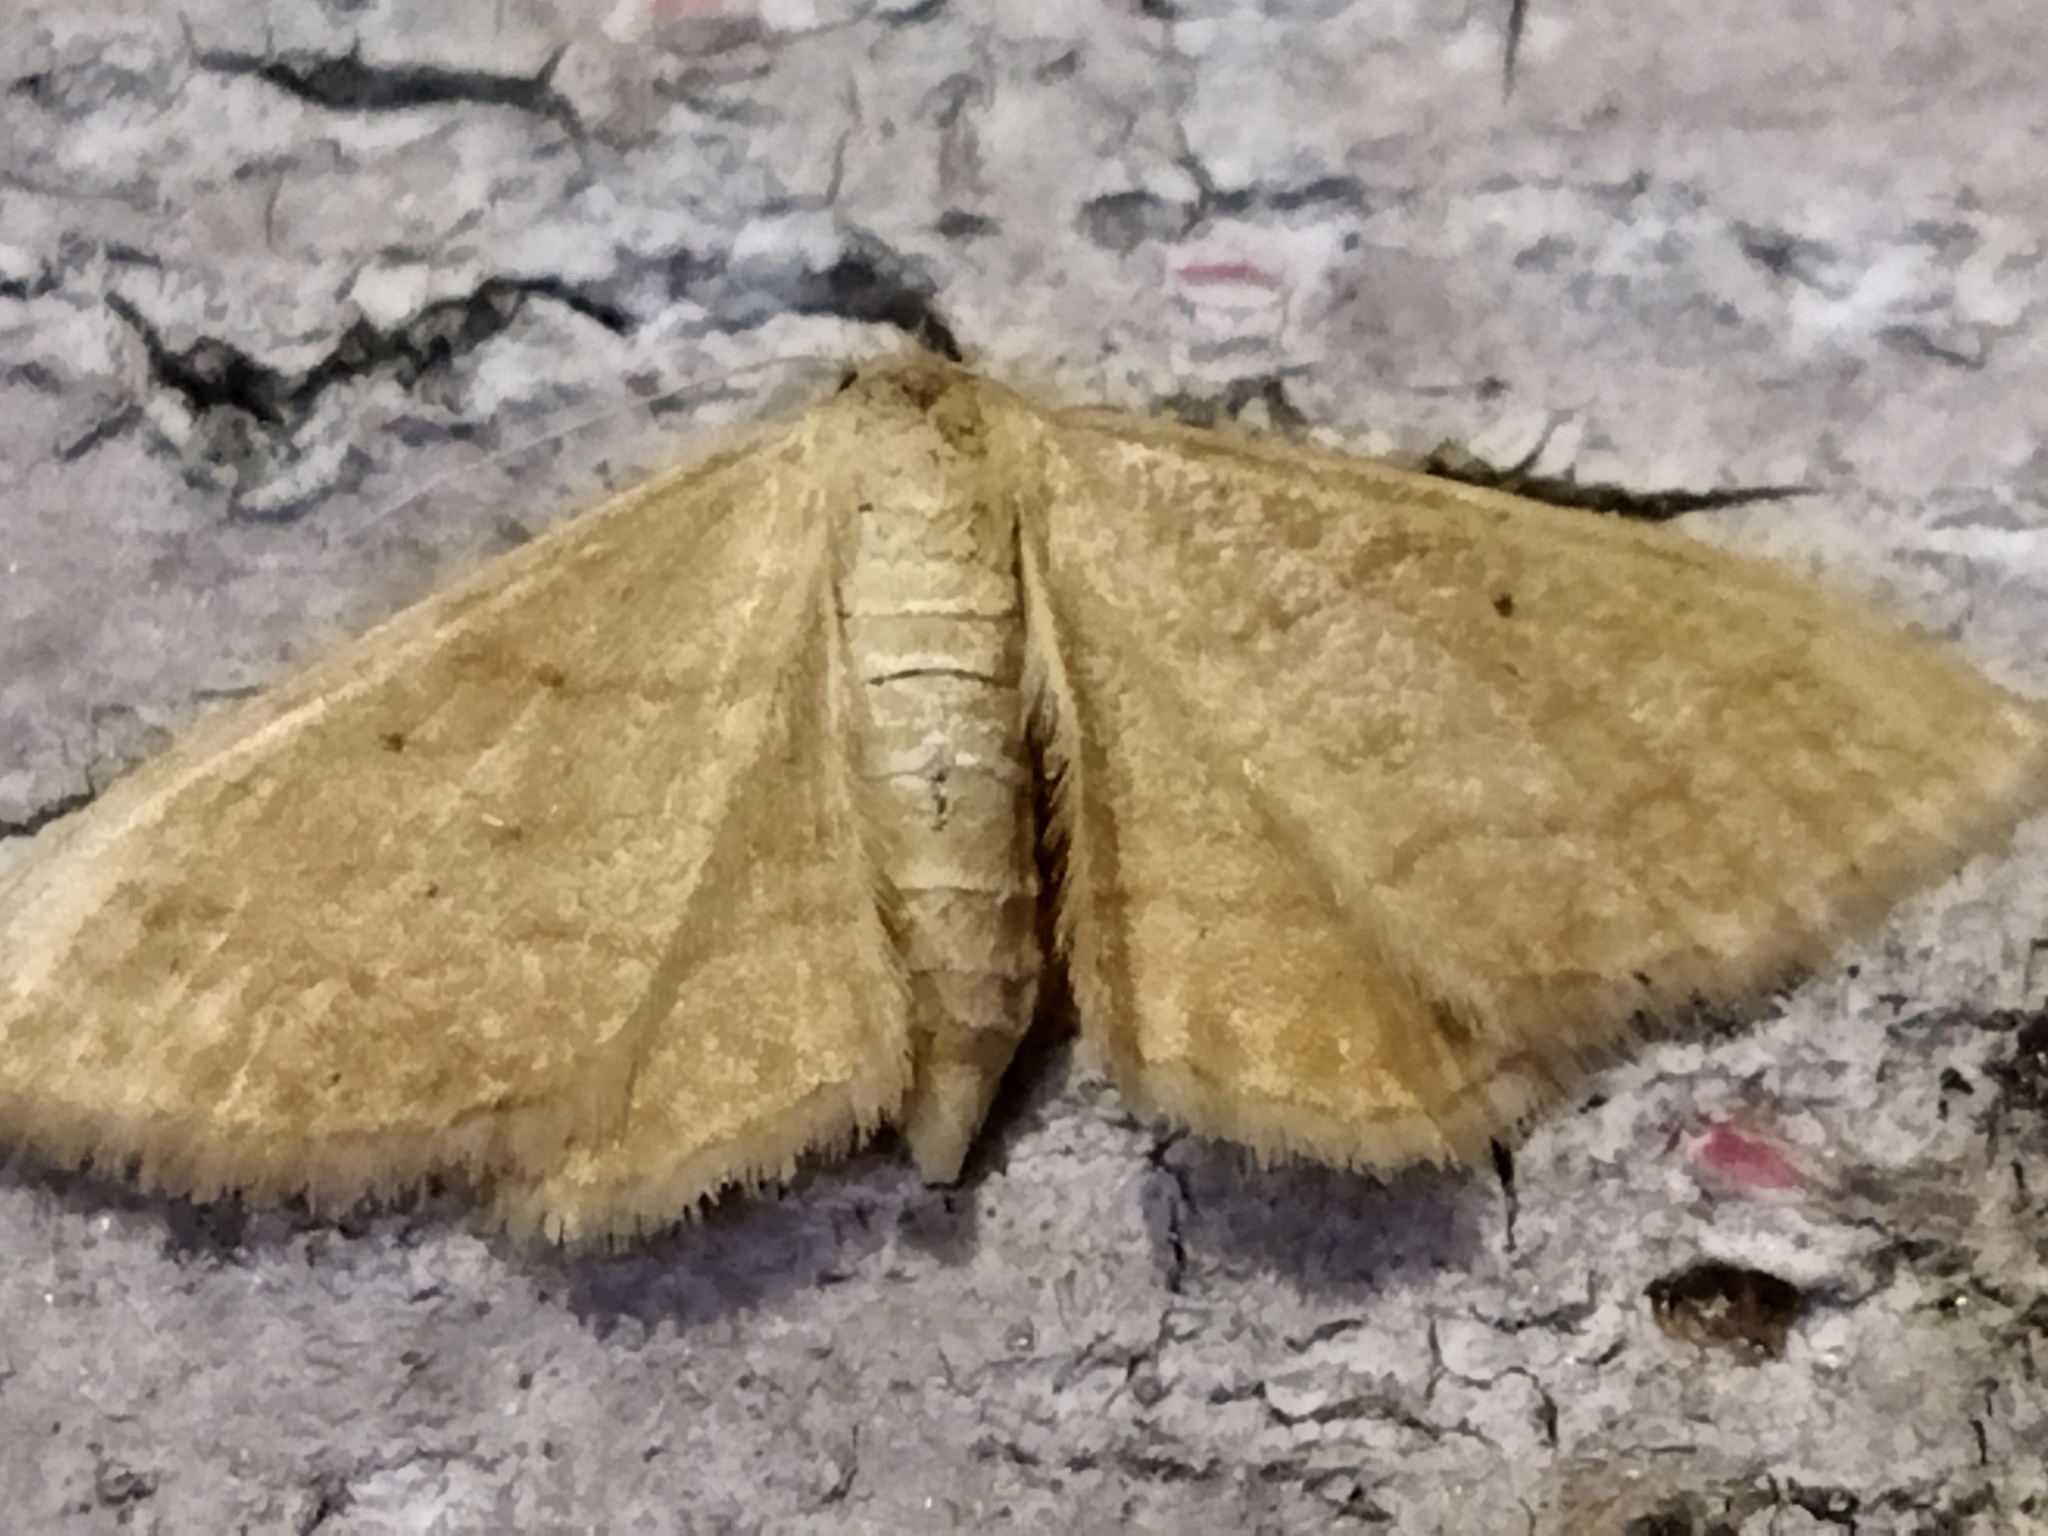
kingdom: Animalia
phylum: Arthropoda
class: Insecta
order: Lepidoptera
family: Geometridae
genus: Idaea
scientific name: Idaea rufaria
